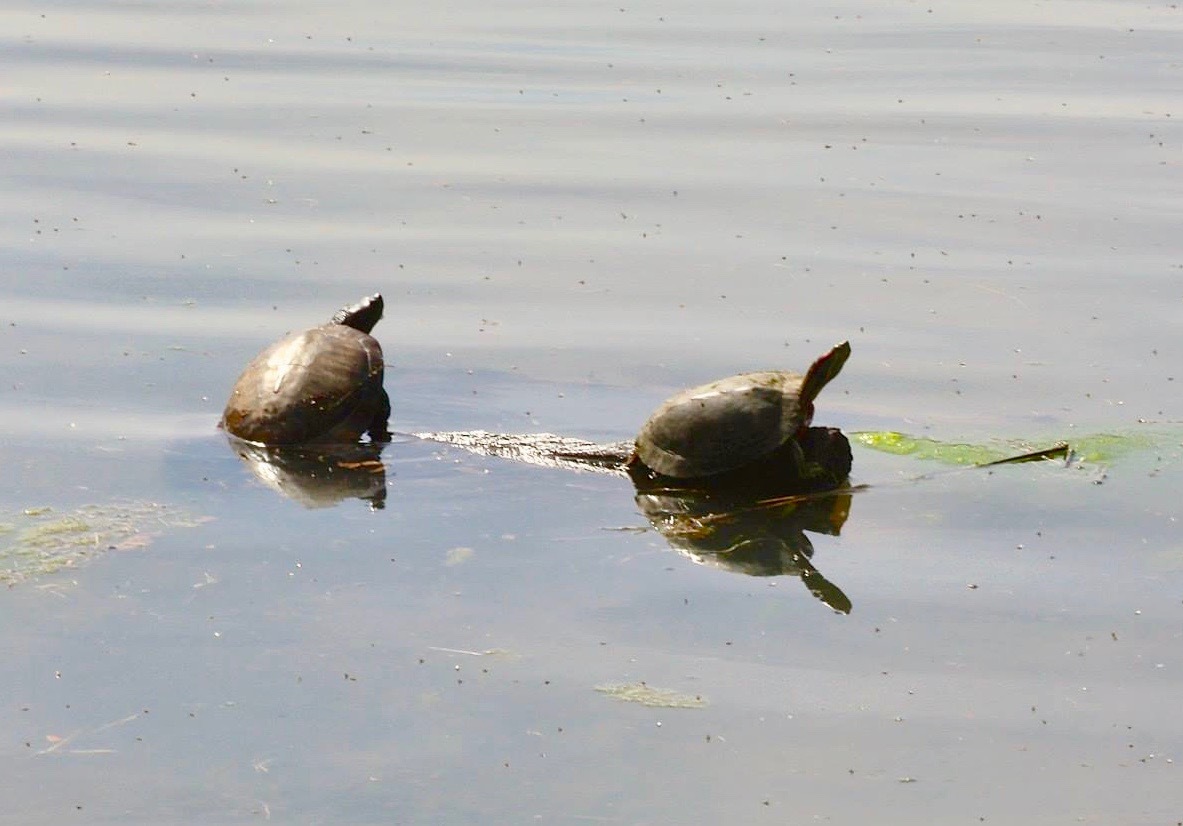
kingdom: Animalia
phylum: Chordata
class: Testudines
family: Emydidae
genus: Trachemys
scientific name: Trachemys scripta
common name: Slider
